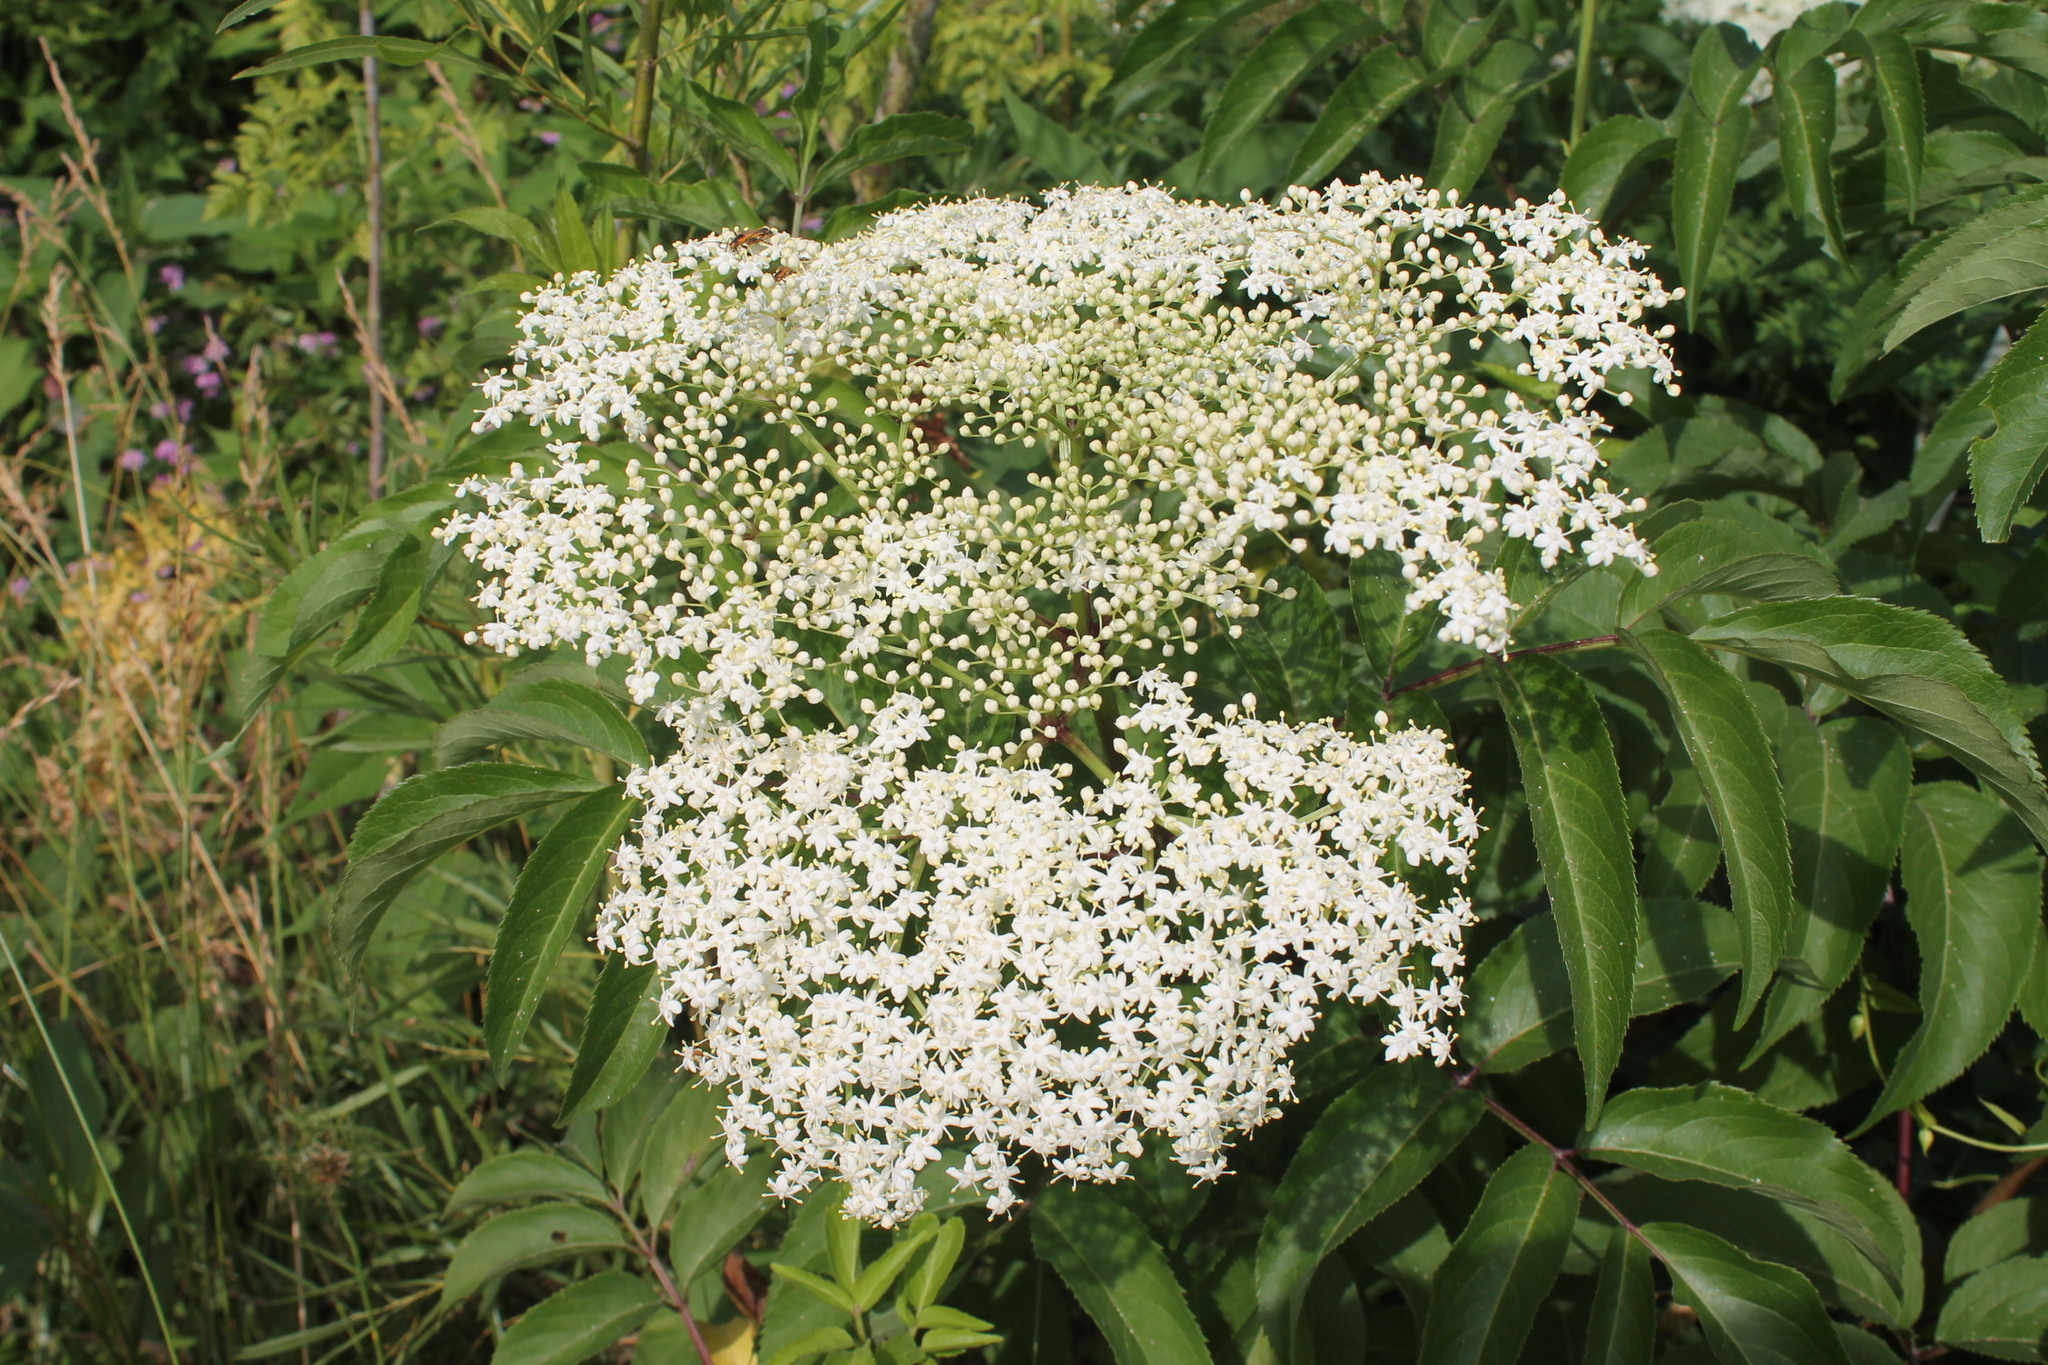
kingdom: Plantae
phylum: Tracheophyta
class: Magnoliopsida
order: Dipsacales
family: Viburnaceae
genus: Sambucus
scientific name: Sambucus canadensis
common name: American elder
